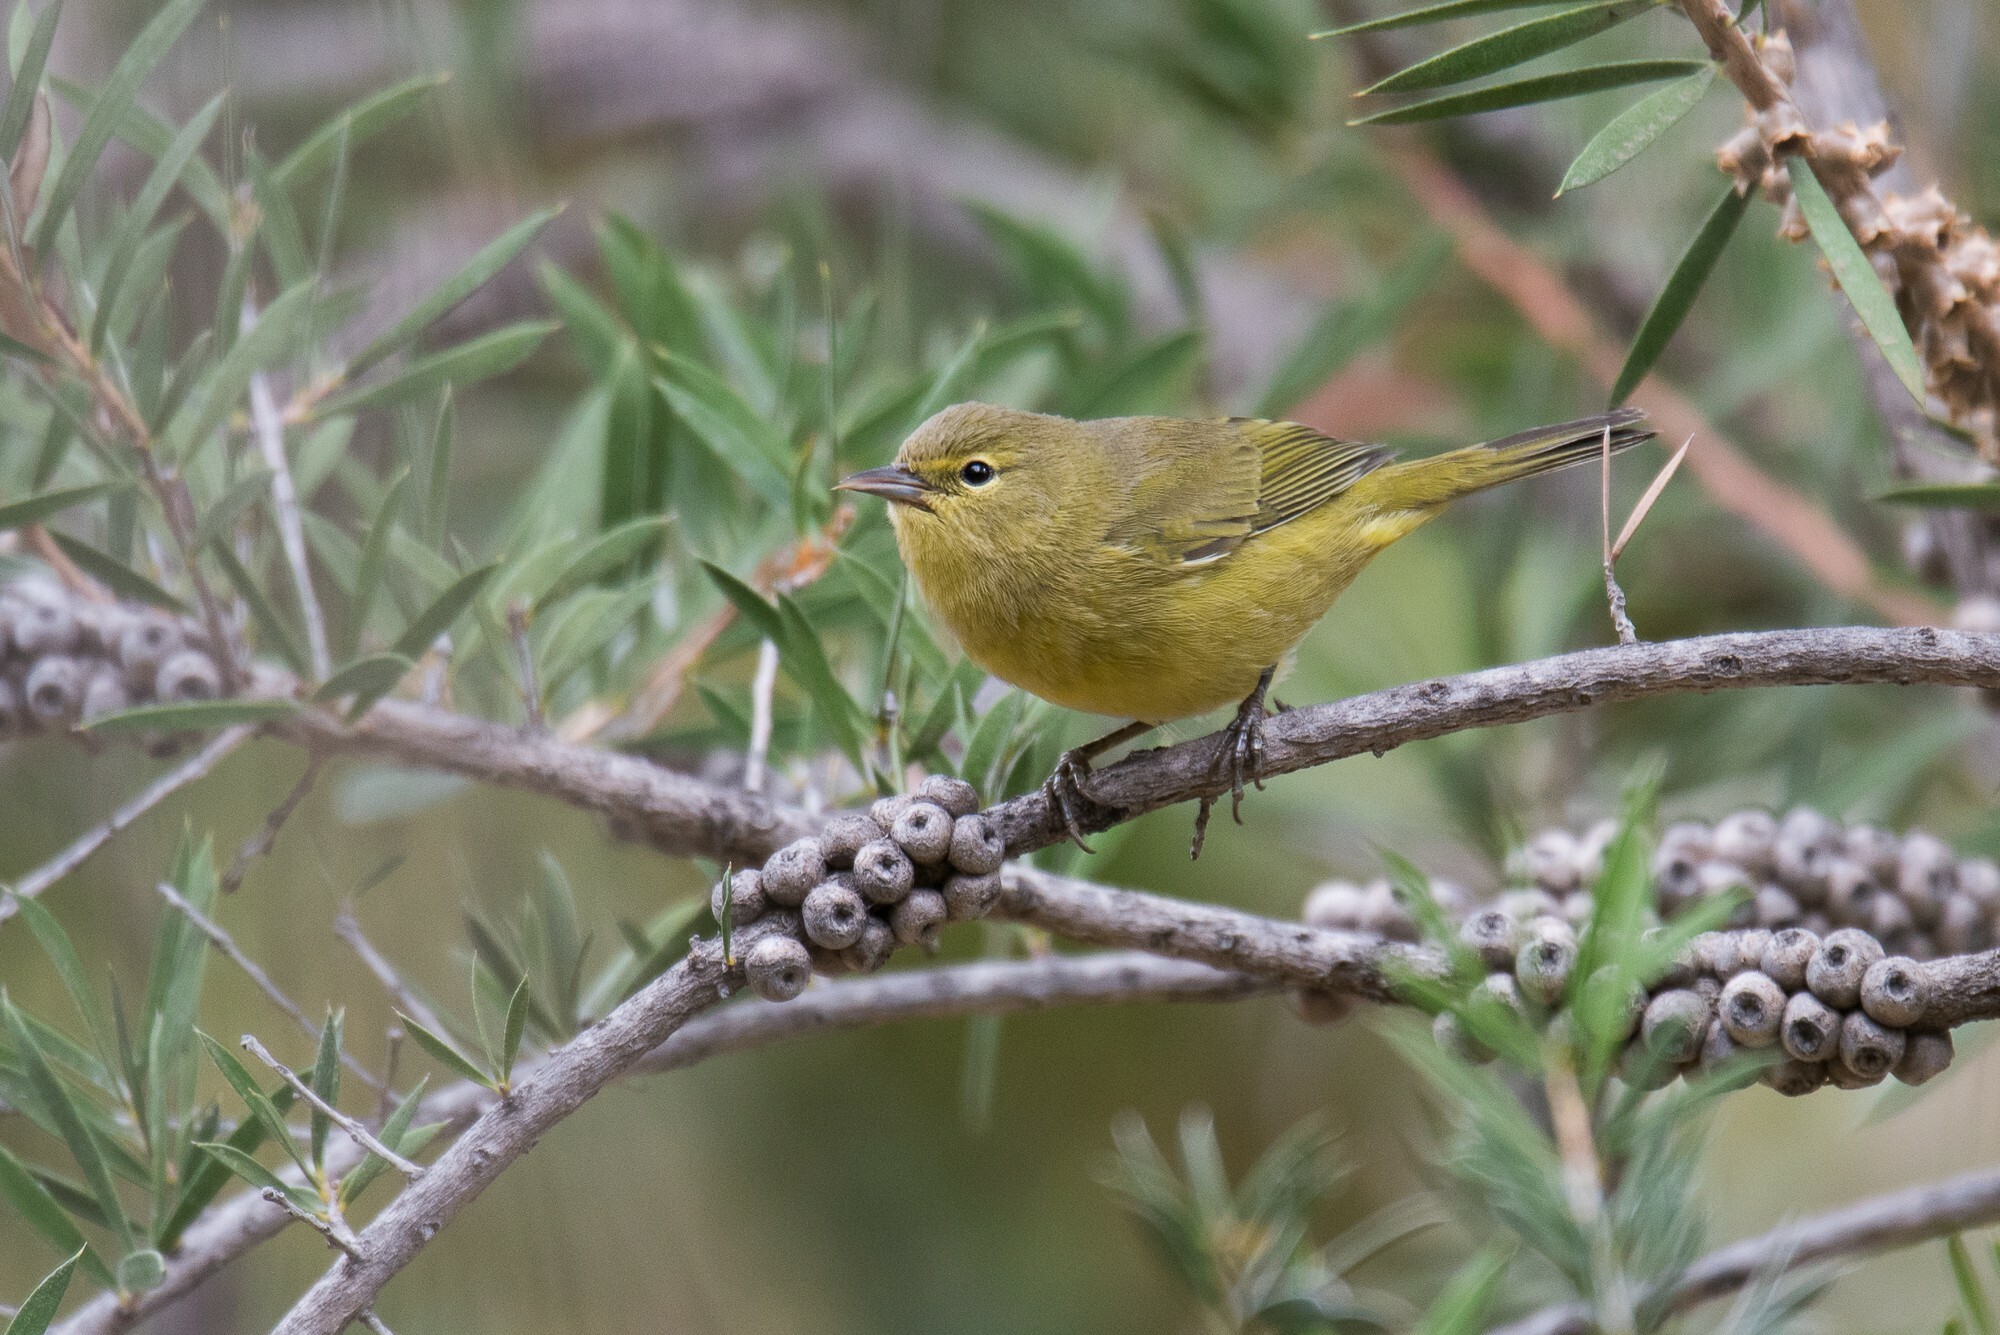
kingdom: Animalia
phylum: Chordata
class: Aves
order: Passeriformes
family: Parulidae
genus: Leiothlypis
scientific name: Leiothlypis celata
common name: Orange-crowned warbler
